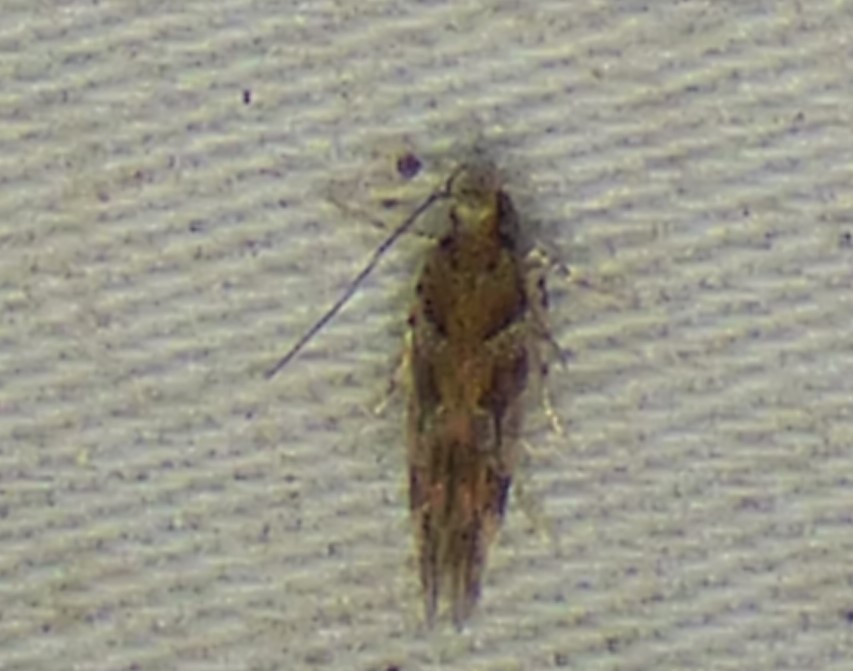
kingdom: Animalia
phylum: Arthropoda
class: Insecta
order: Lepidoptera
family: Gelechiidae
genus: Aristotelia
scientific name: Aristotelia roseosuffusella
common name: Pink-washed aristotelia moth
